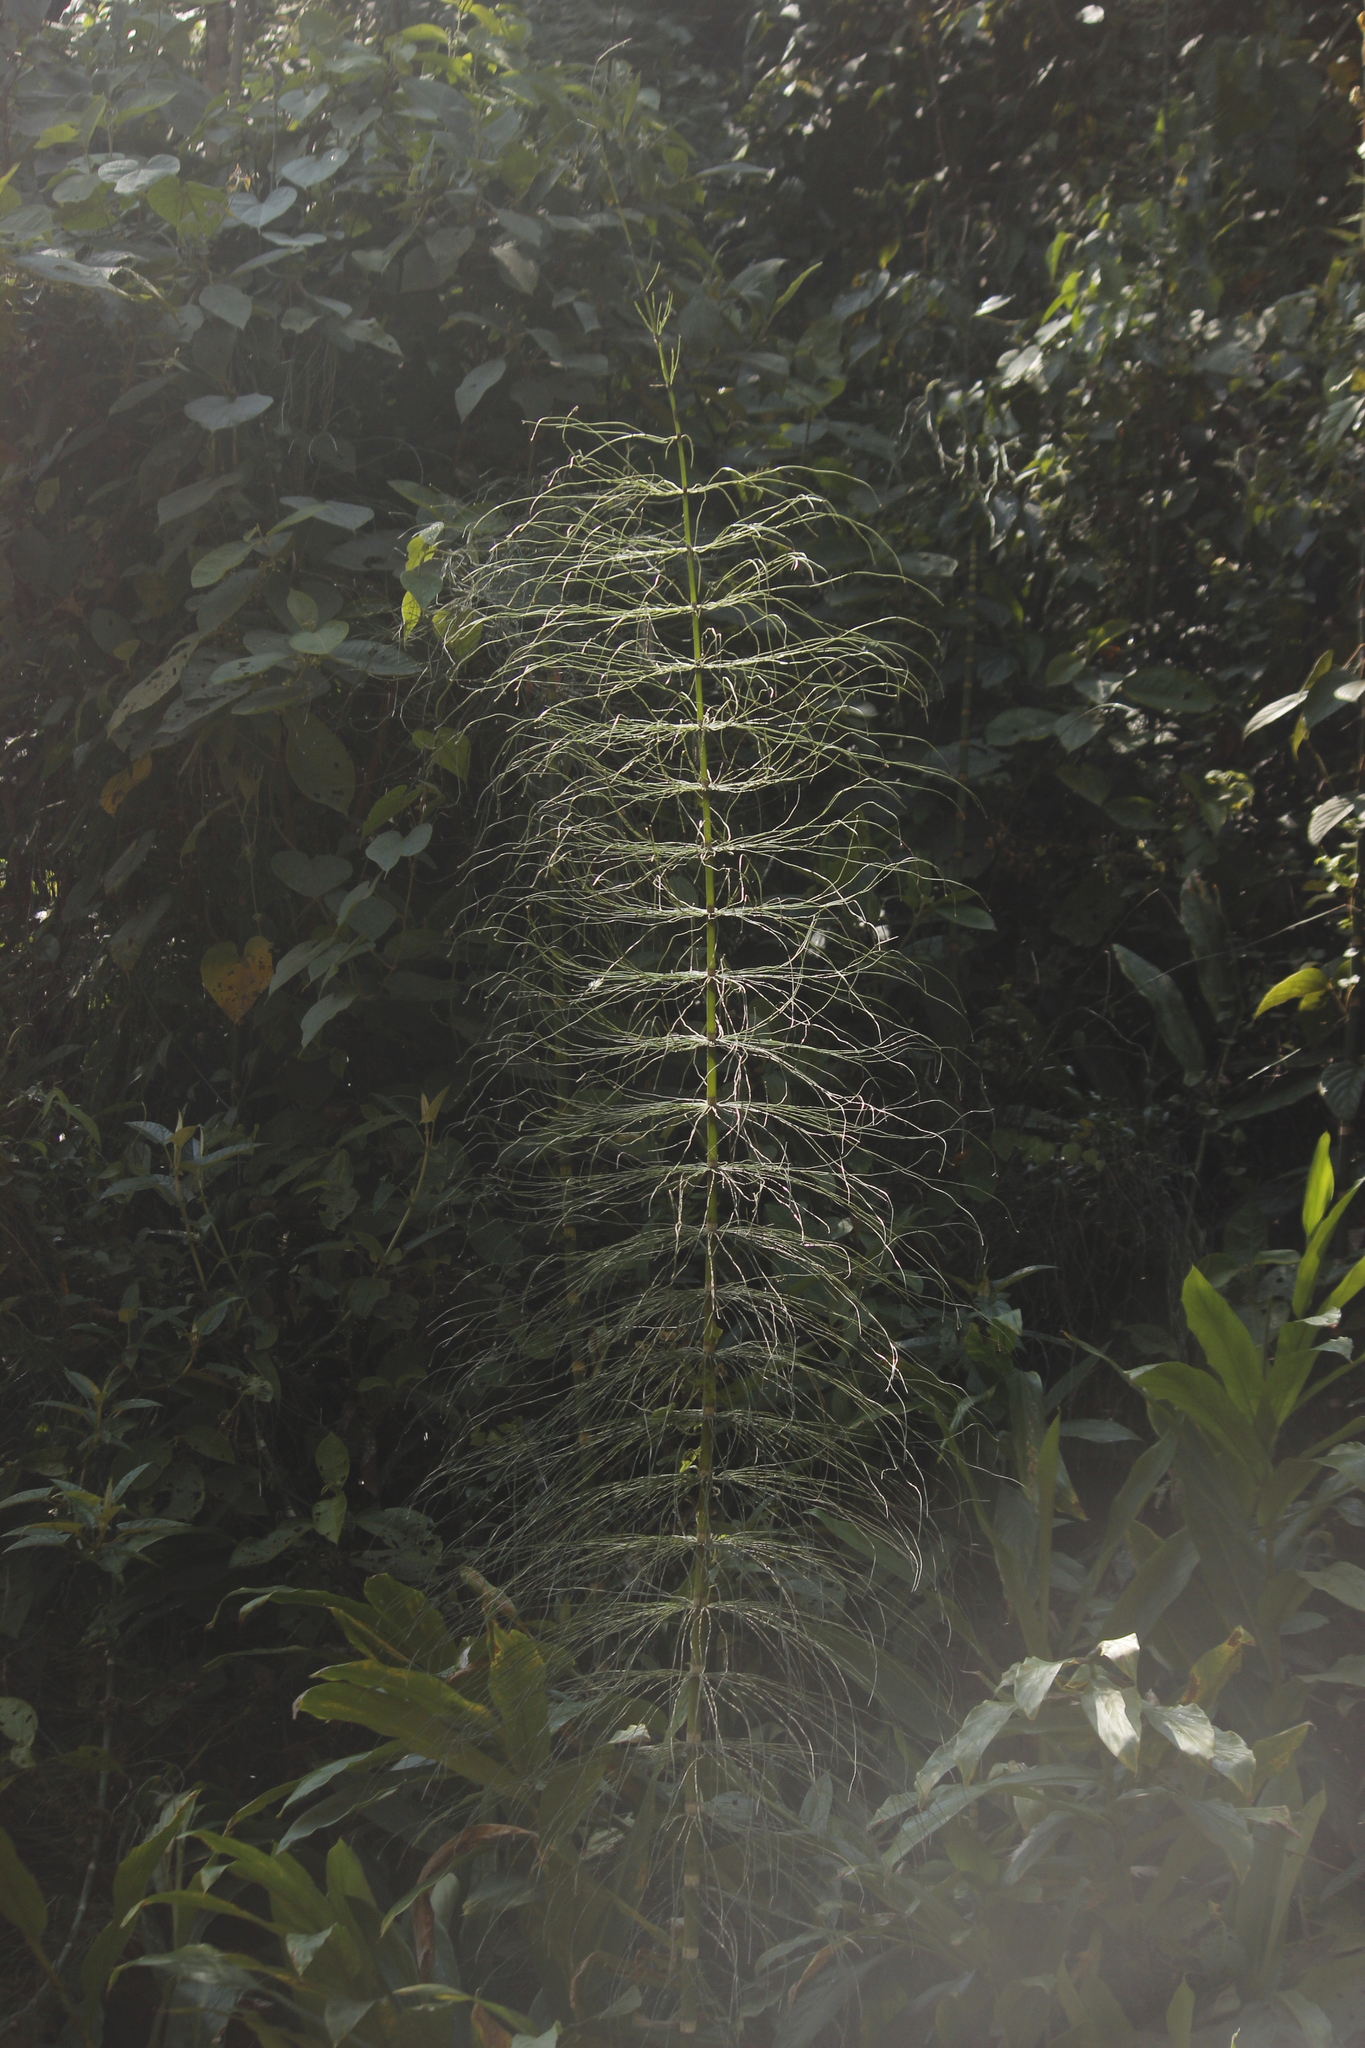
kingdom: Plantae
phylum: Tracheophyta
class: Polypodiopsida
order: Equisetales
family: Equisetaceae
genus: Equisetum
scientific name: Equisetum giganteum
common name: Giant horsetail
